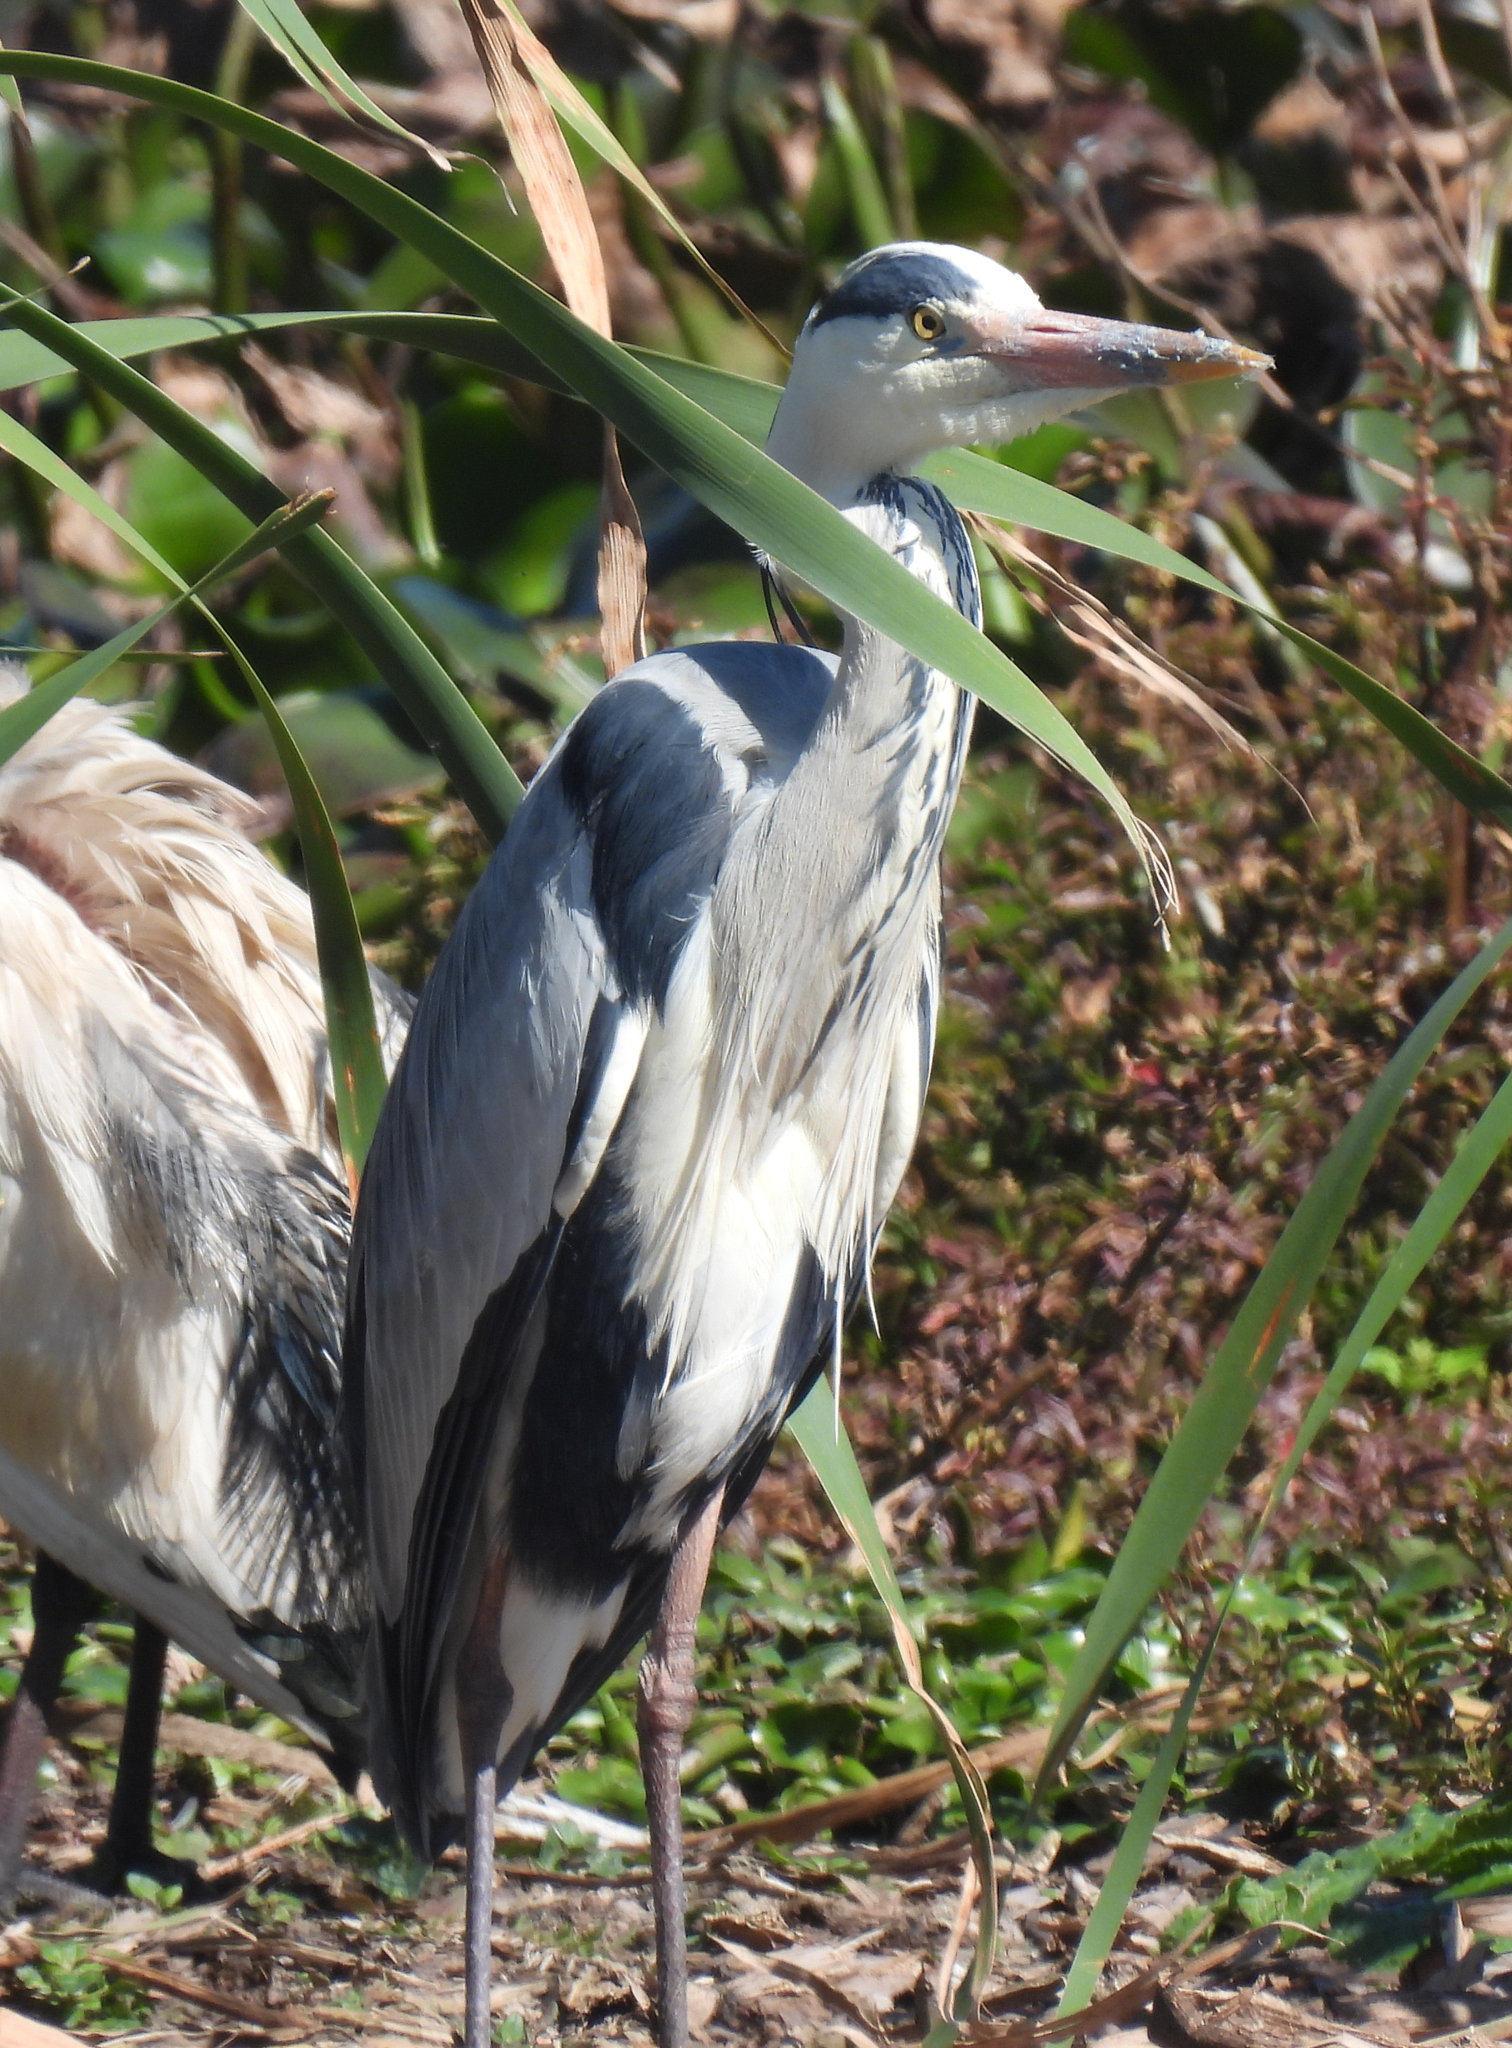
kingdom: Animalia
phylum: Chordata
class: Aves
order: Pelecaniformes
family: Ardeidae
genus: Ardea
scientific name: Ardea cinerea
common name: Grey heron
